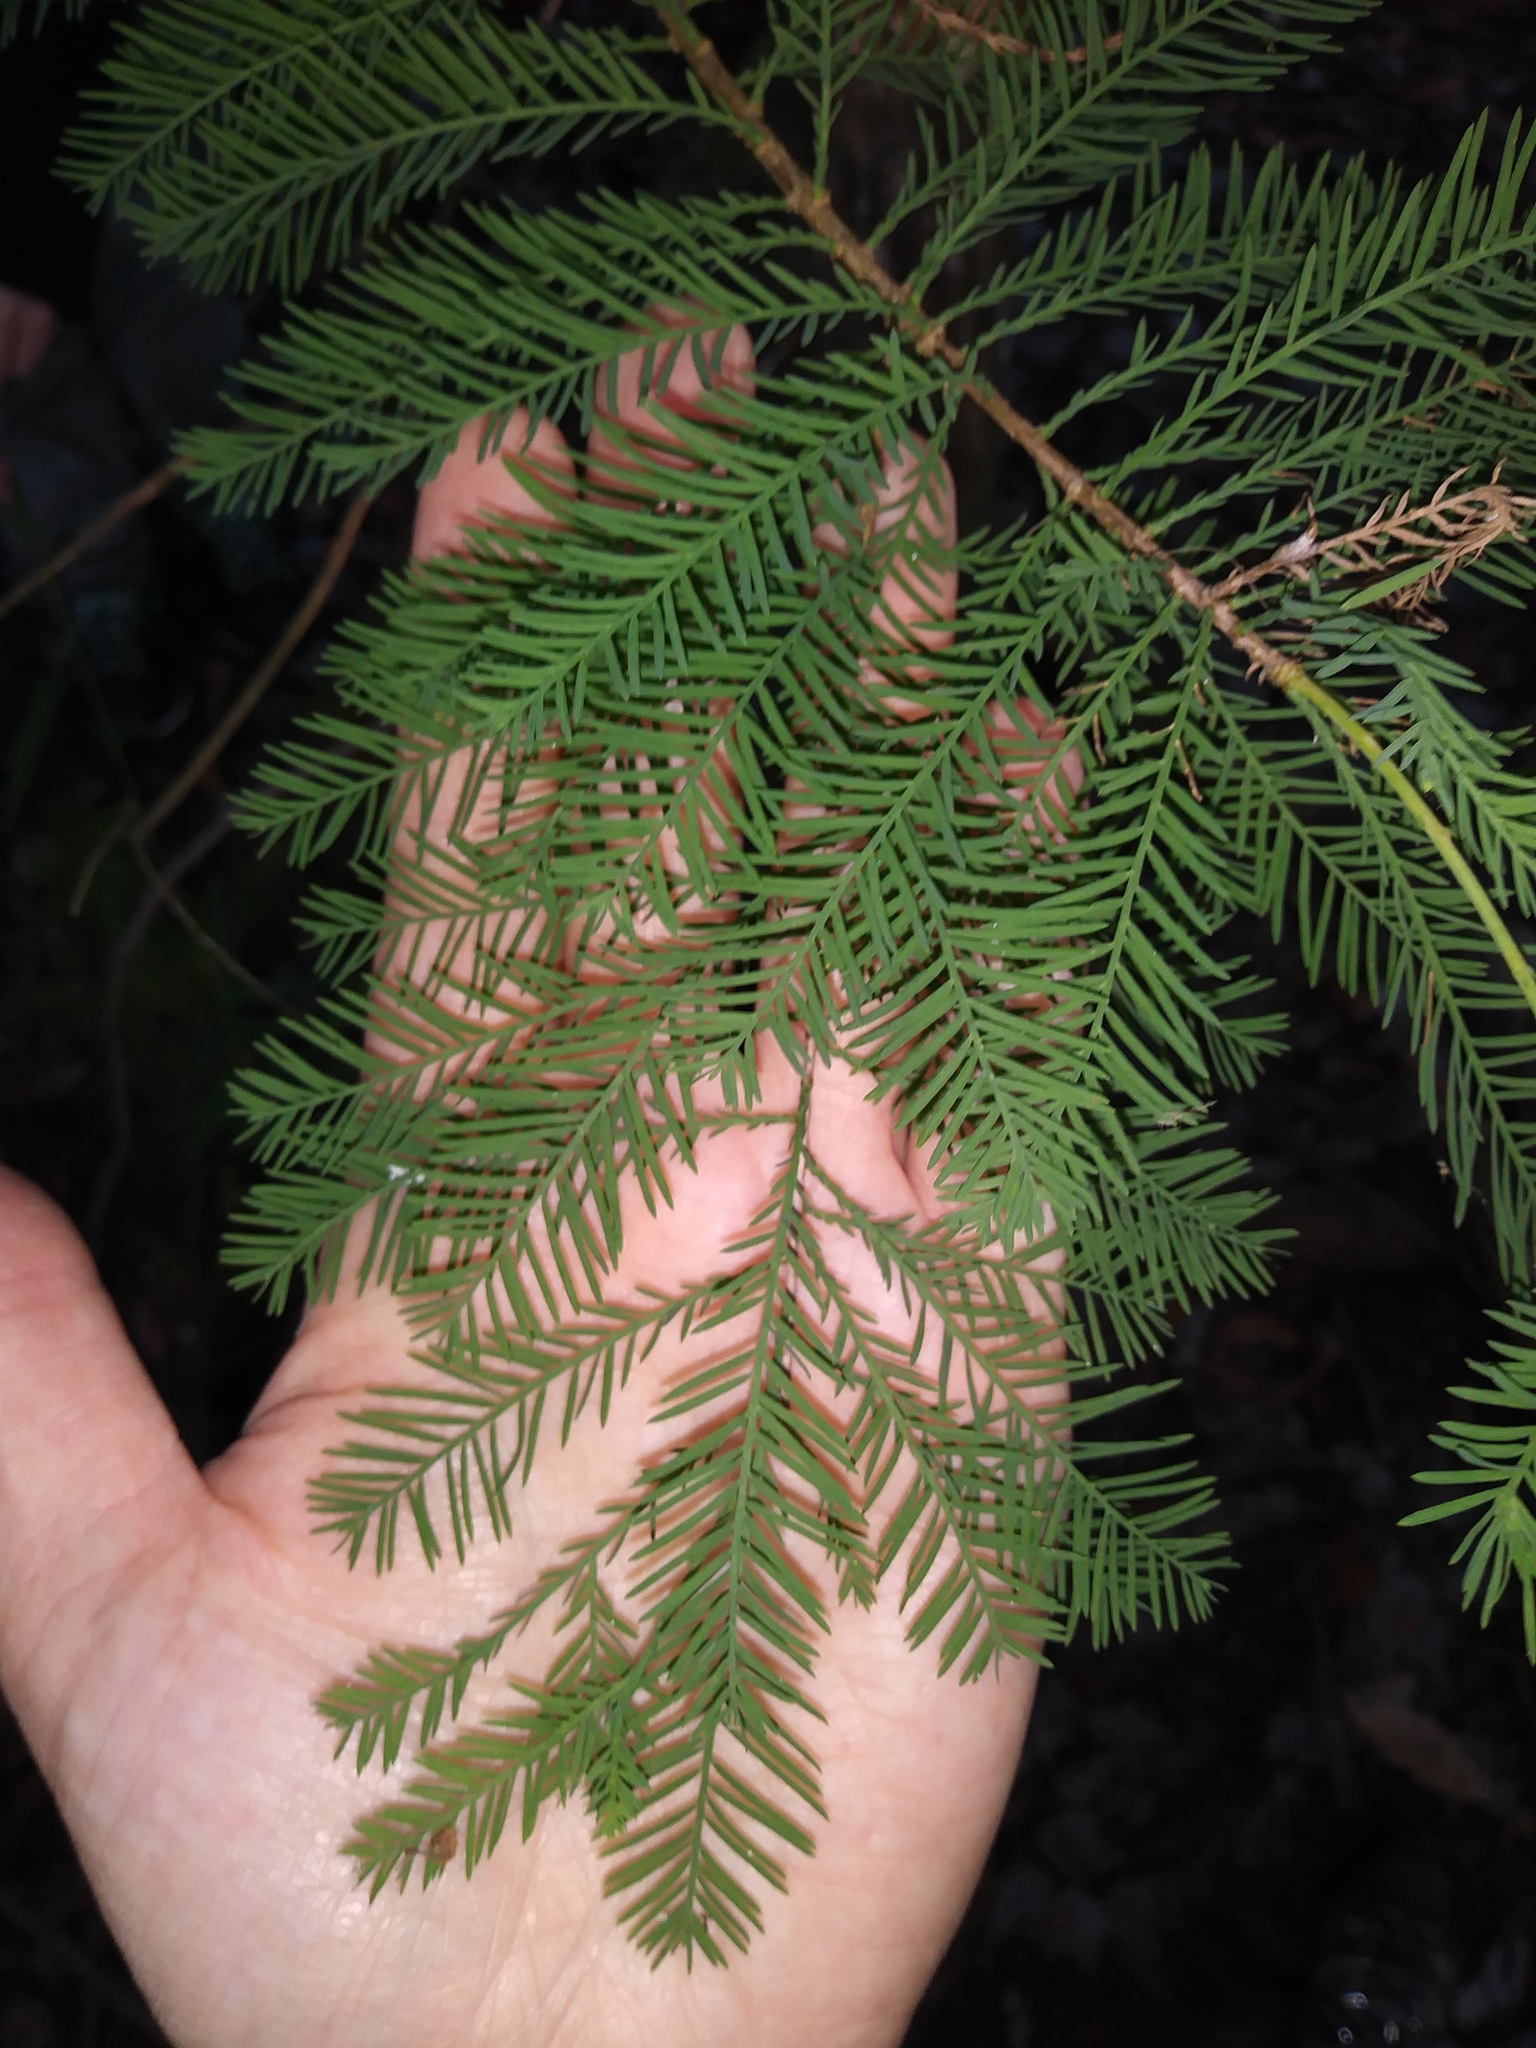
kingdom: Plantae
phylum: Tracheophyta
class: Pinopsida
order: Pinales
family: Cupressaceae
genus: Taxodium
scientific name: Taxodium distichum
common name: Bald cypress
